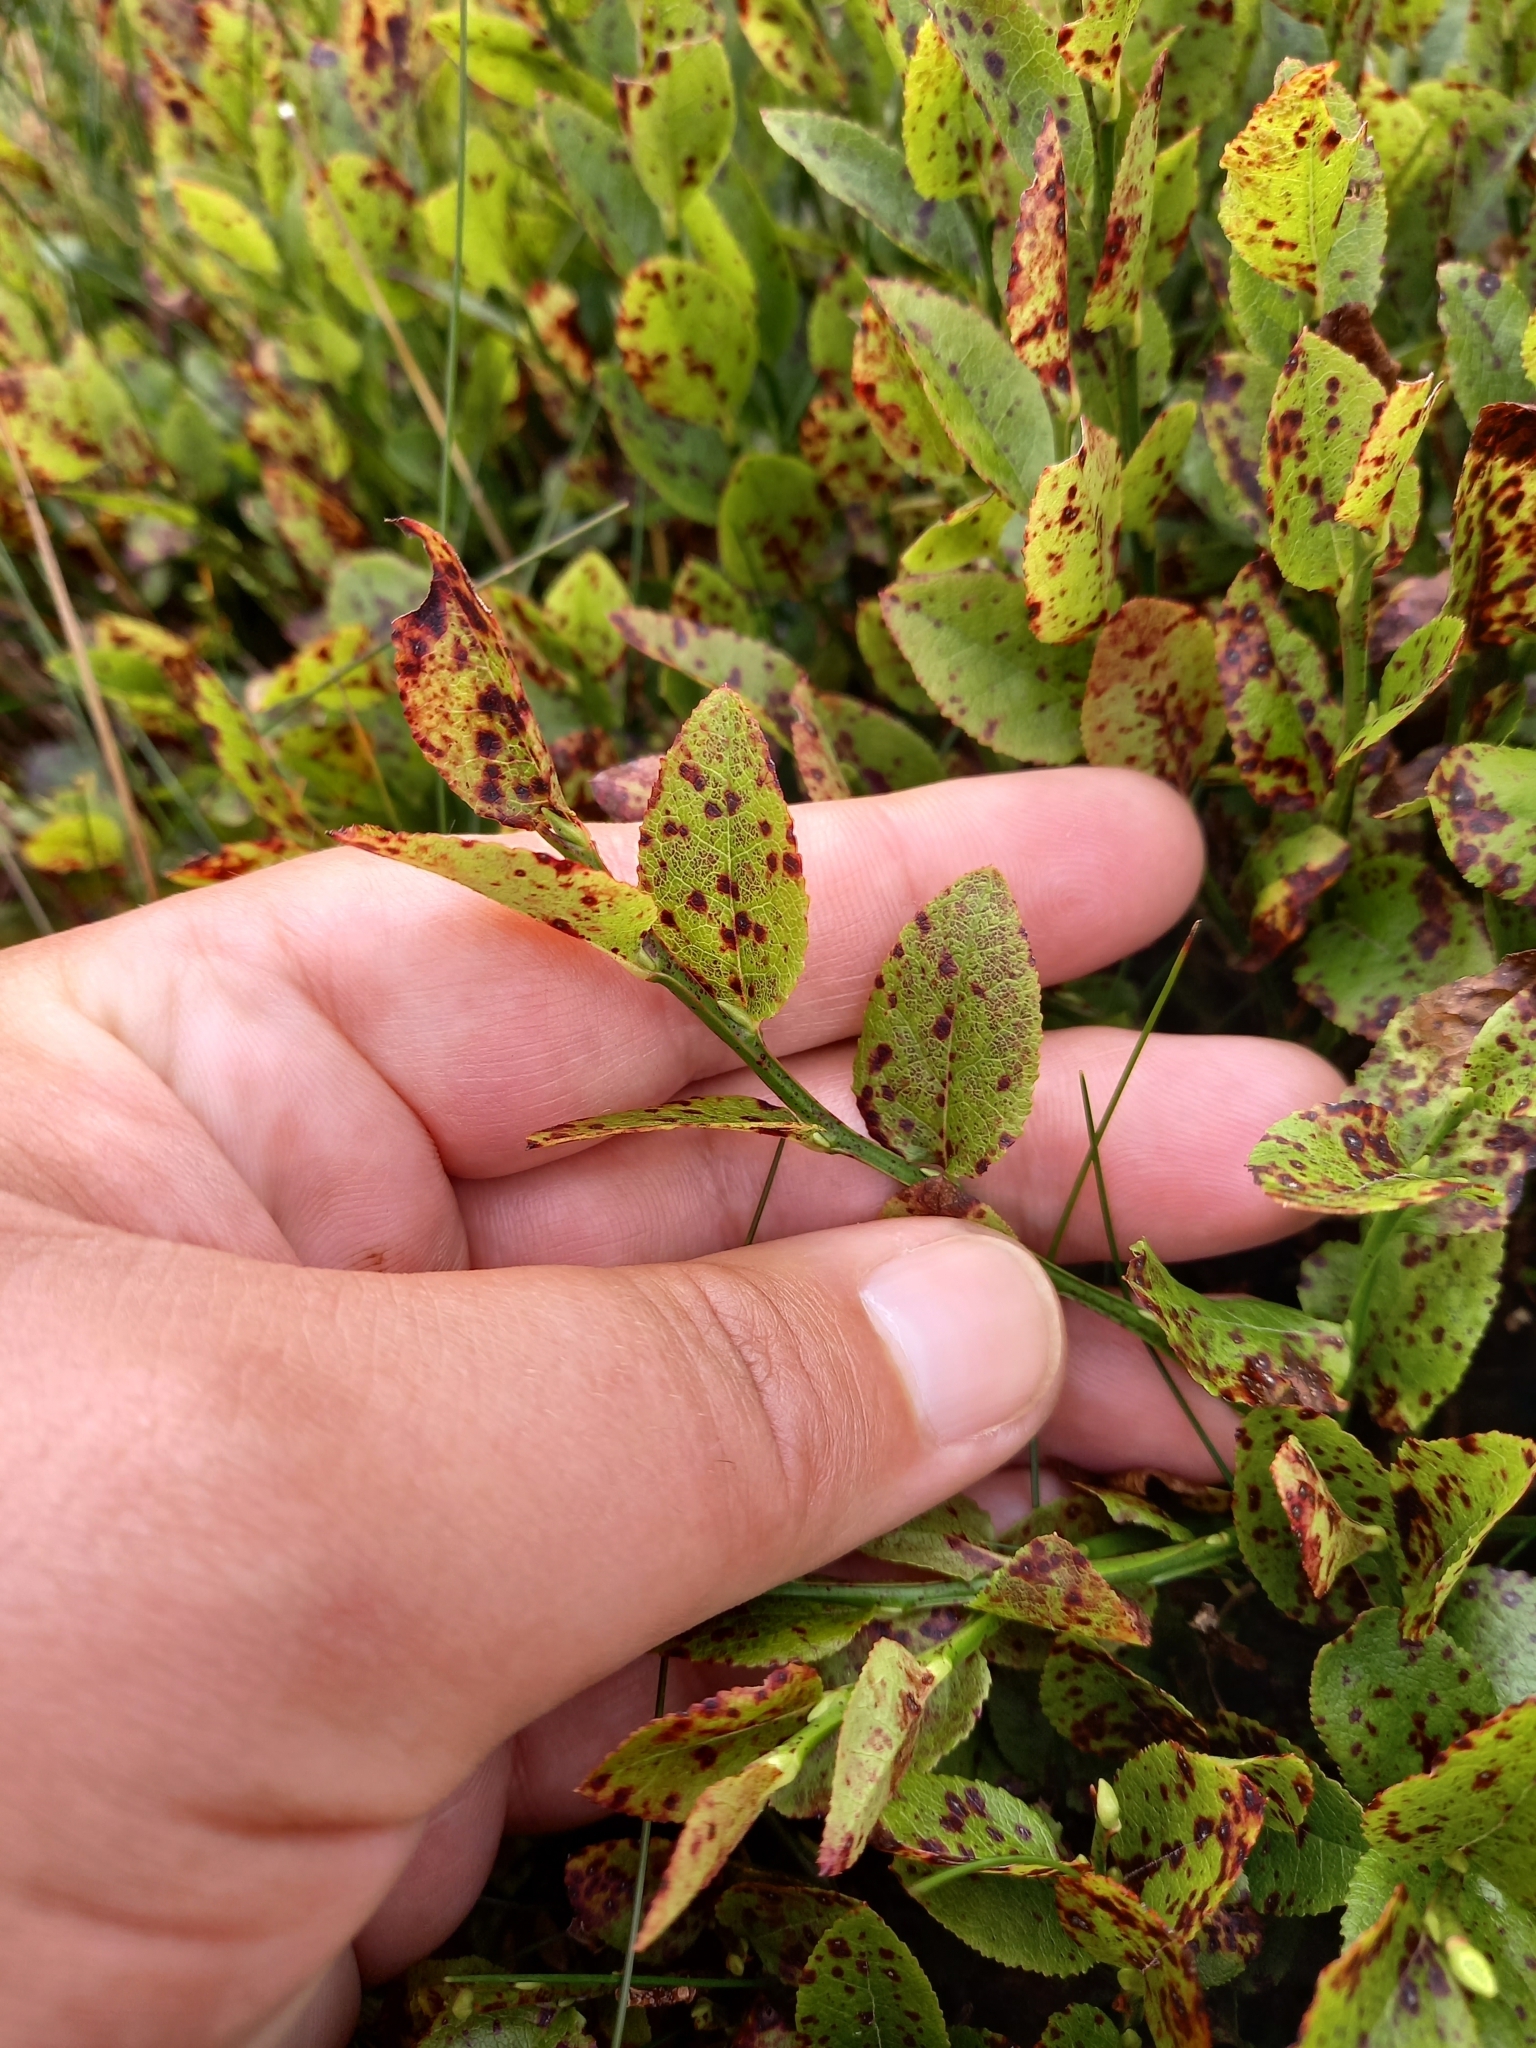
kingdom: Plantae
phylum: Tracheophyta
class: Magnoliopsida
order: Ericales
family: Ericaceae
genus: Vaccinium
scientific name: Vaccinium myrtillus
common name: Bilberry
